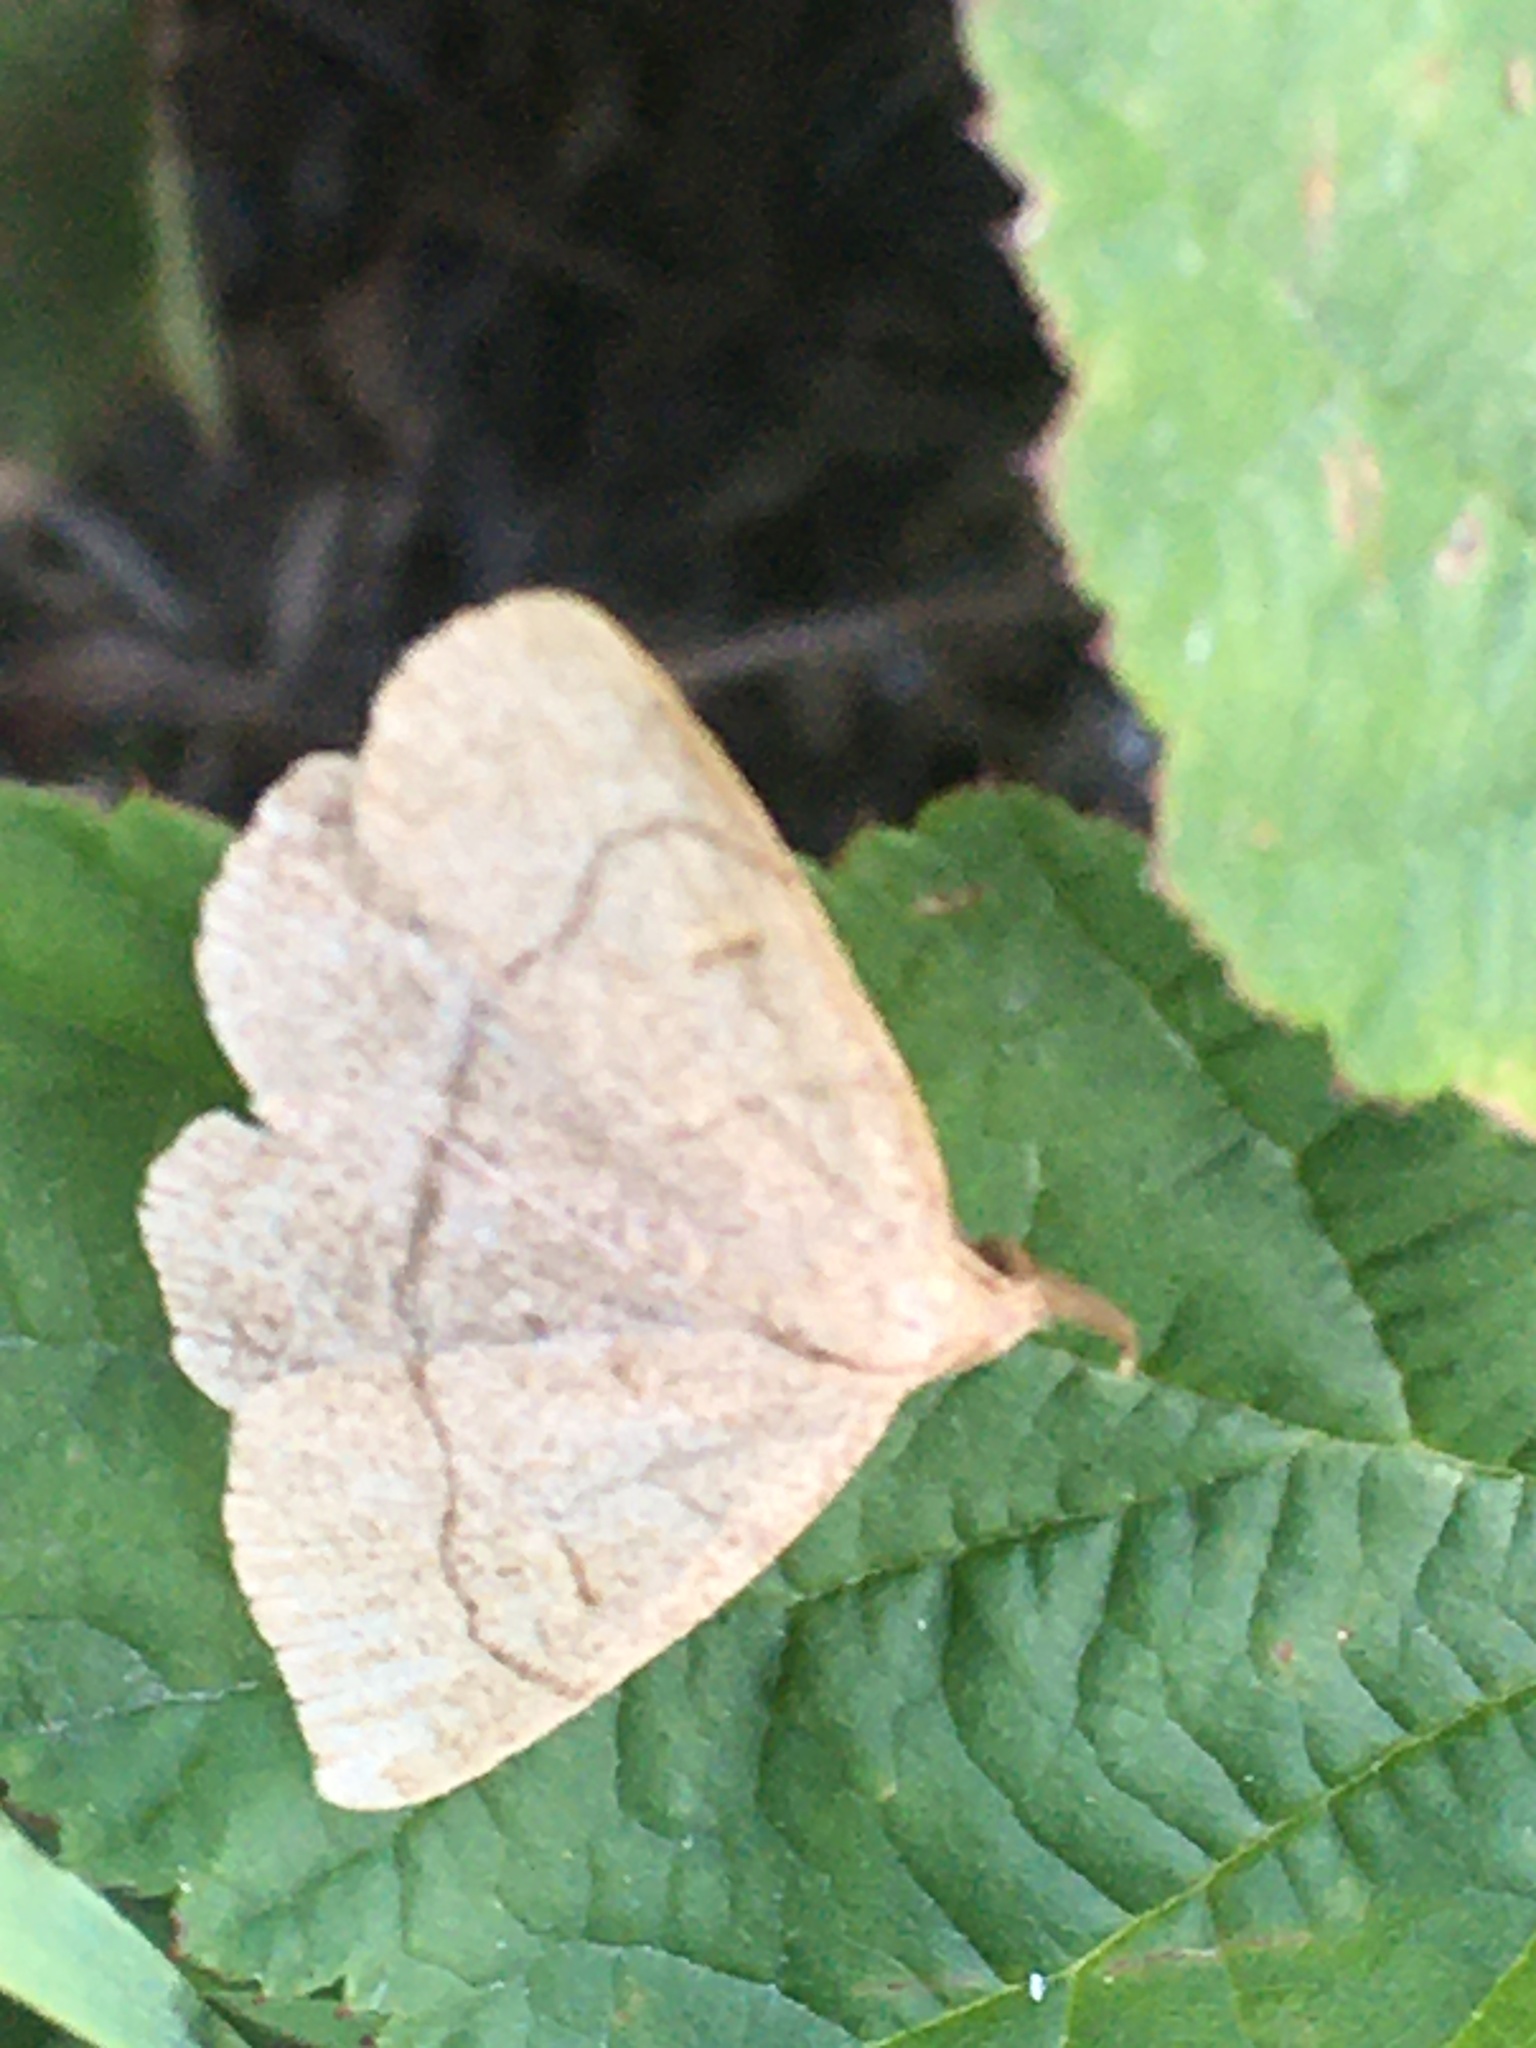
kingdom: Animalia
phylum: Arthropoda
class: Insecta
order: Lepidoptera
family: Erebidae
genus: Paracolax
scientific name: Paracolax tristalis
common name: Clay fan-foot
